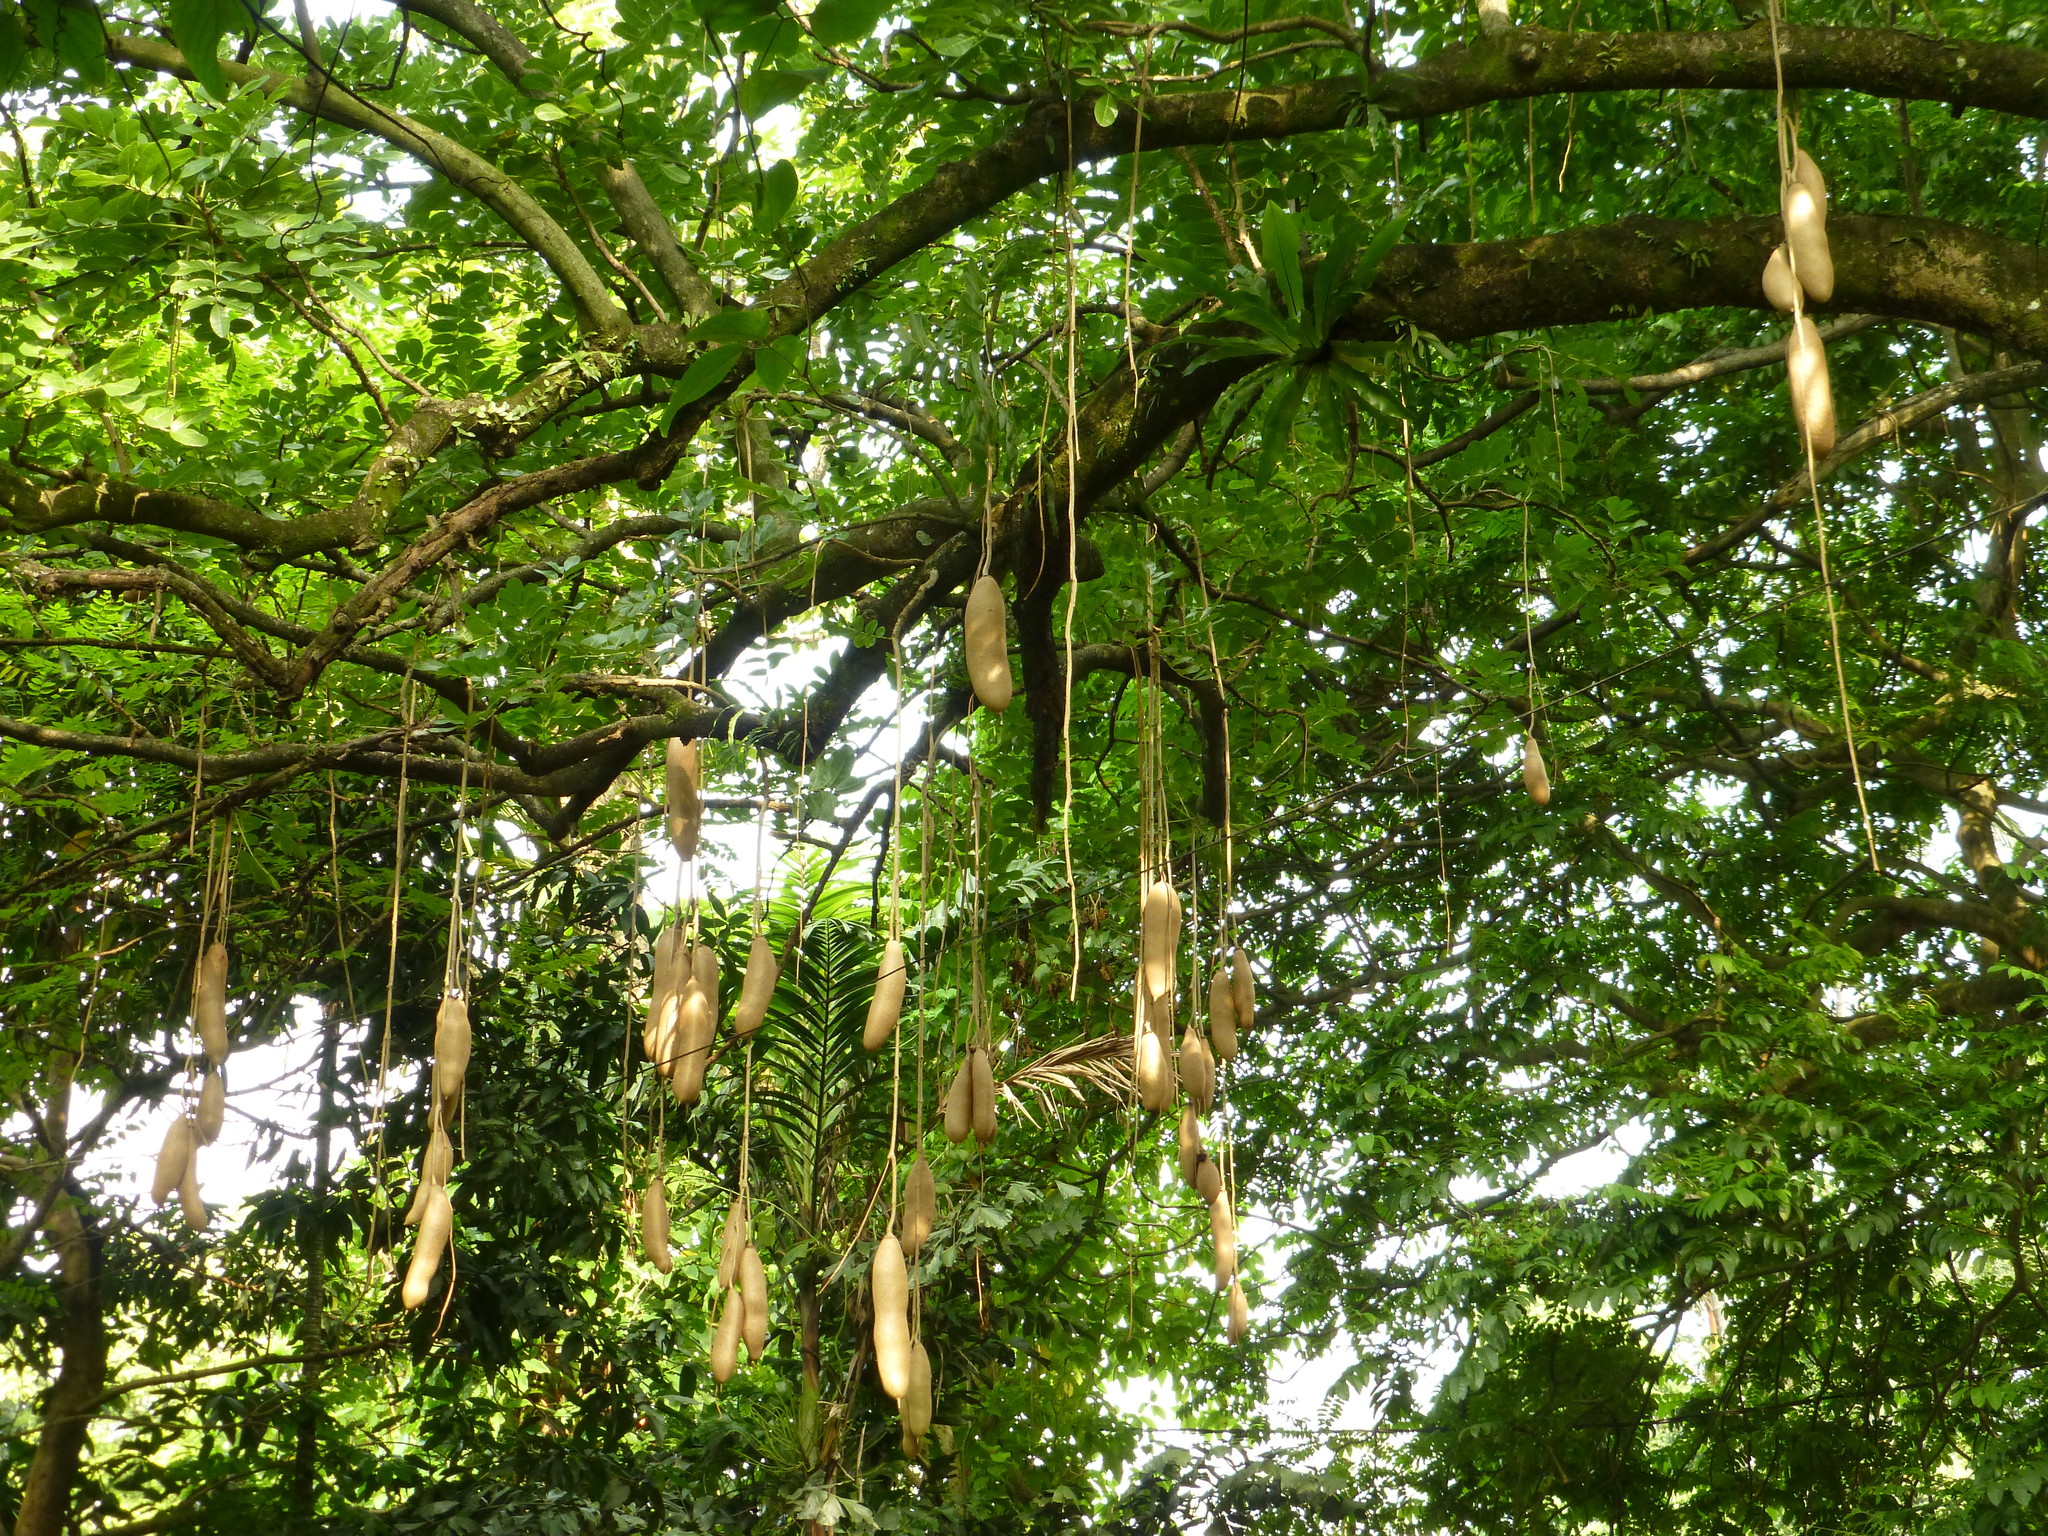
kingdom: Plantae
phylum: Tracheophyta
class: Magnoliopsida
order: Lamiales
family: Bignoniaceae
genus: Kigelia
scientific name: Kigelia africana
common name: Sausage tree
